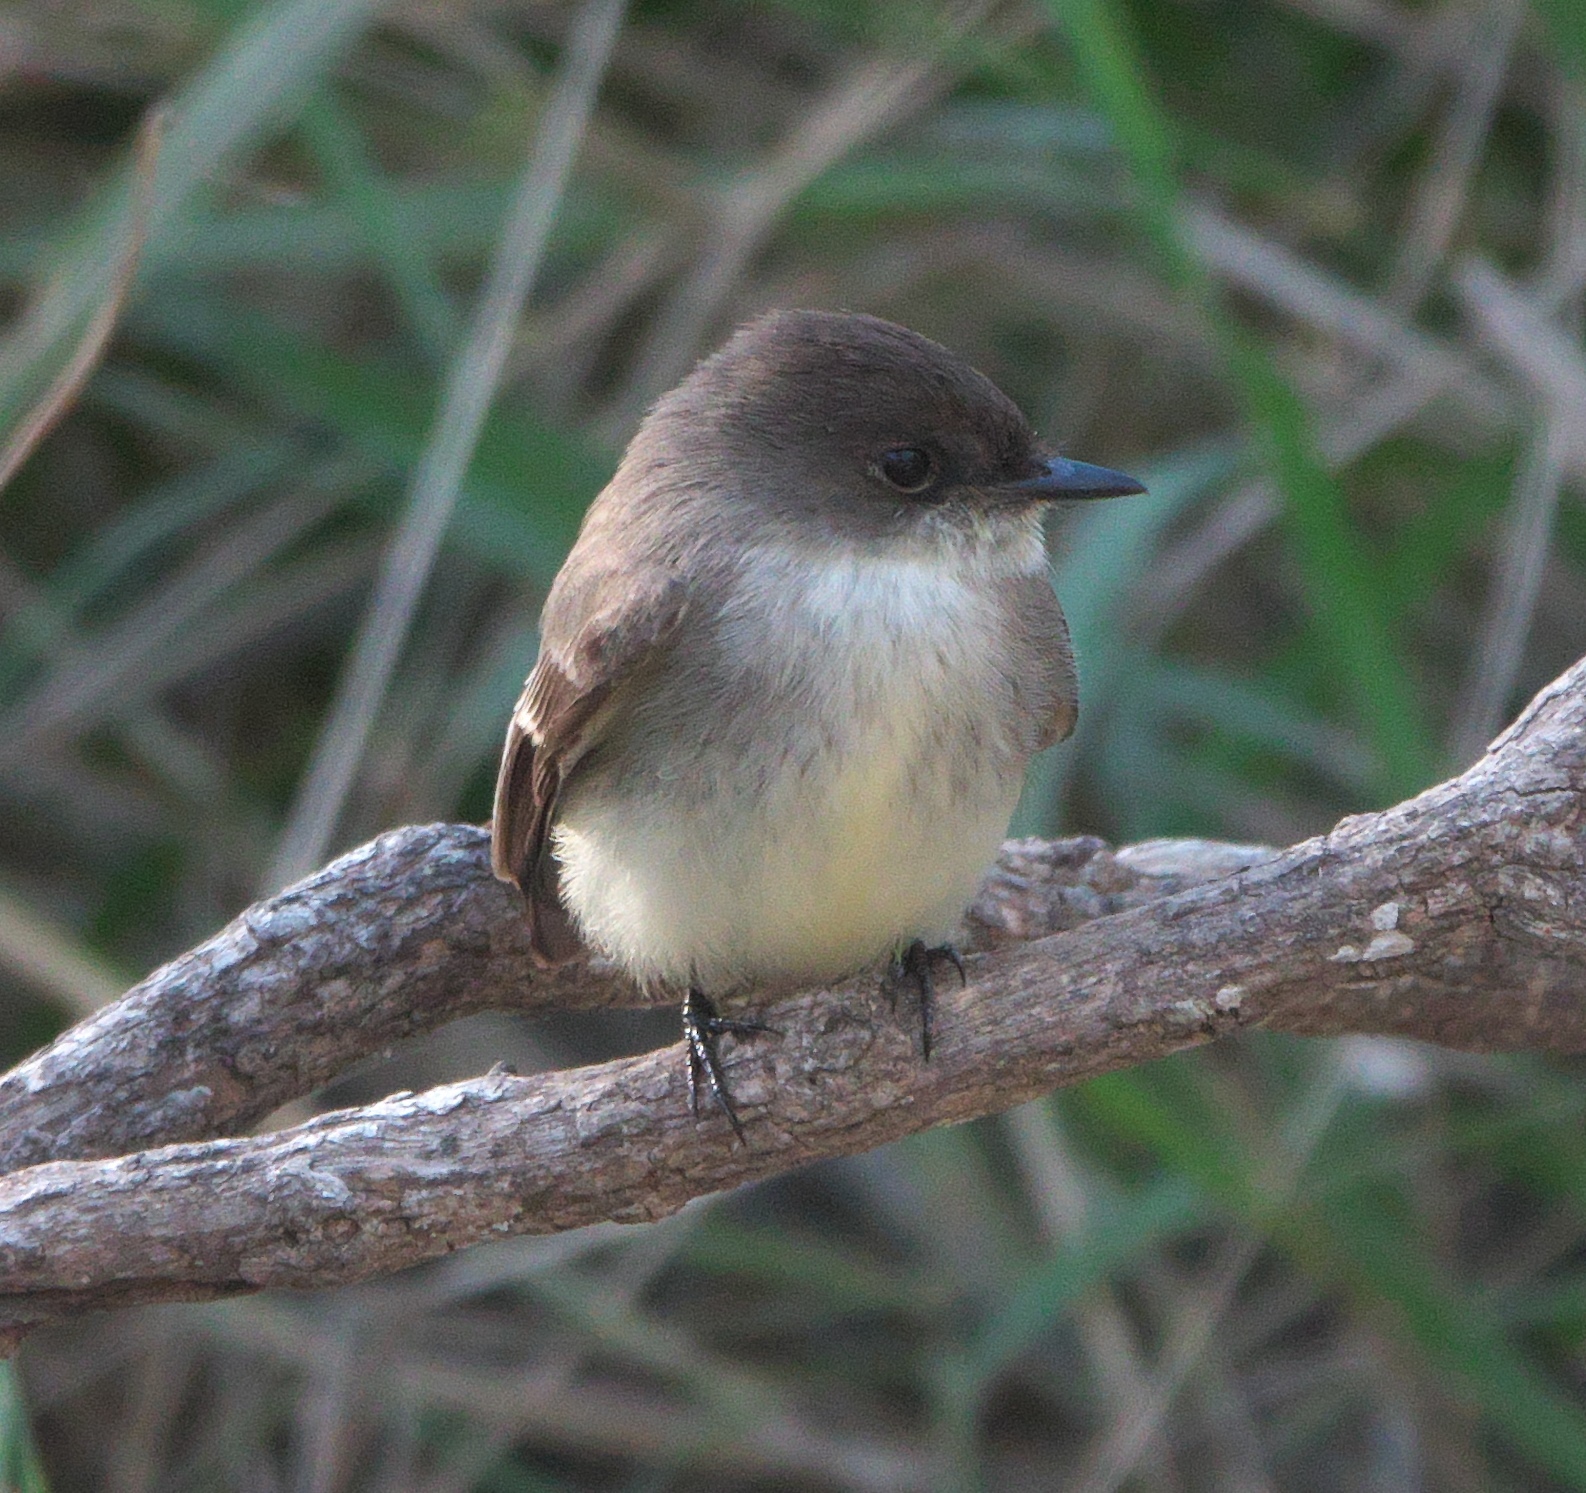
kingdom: Animalia
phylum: Chordata
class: Aves
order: Passeriformes
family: Tyrannidae
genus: Sayornis
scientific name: Sayornis phoebe
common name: Eastern phoebe
